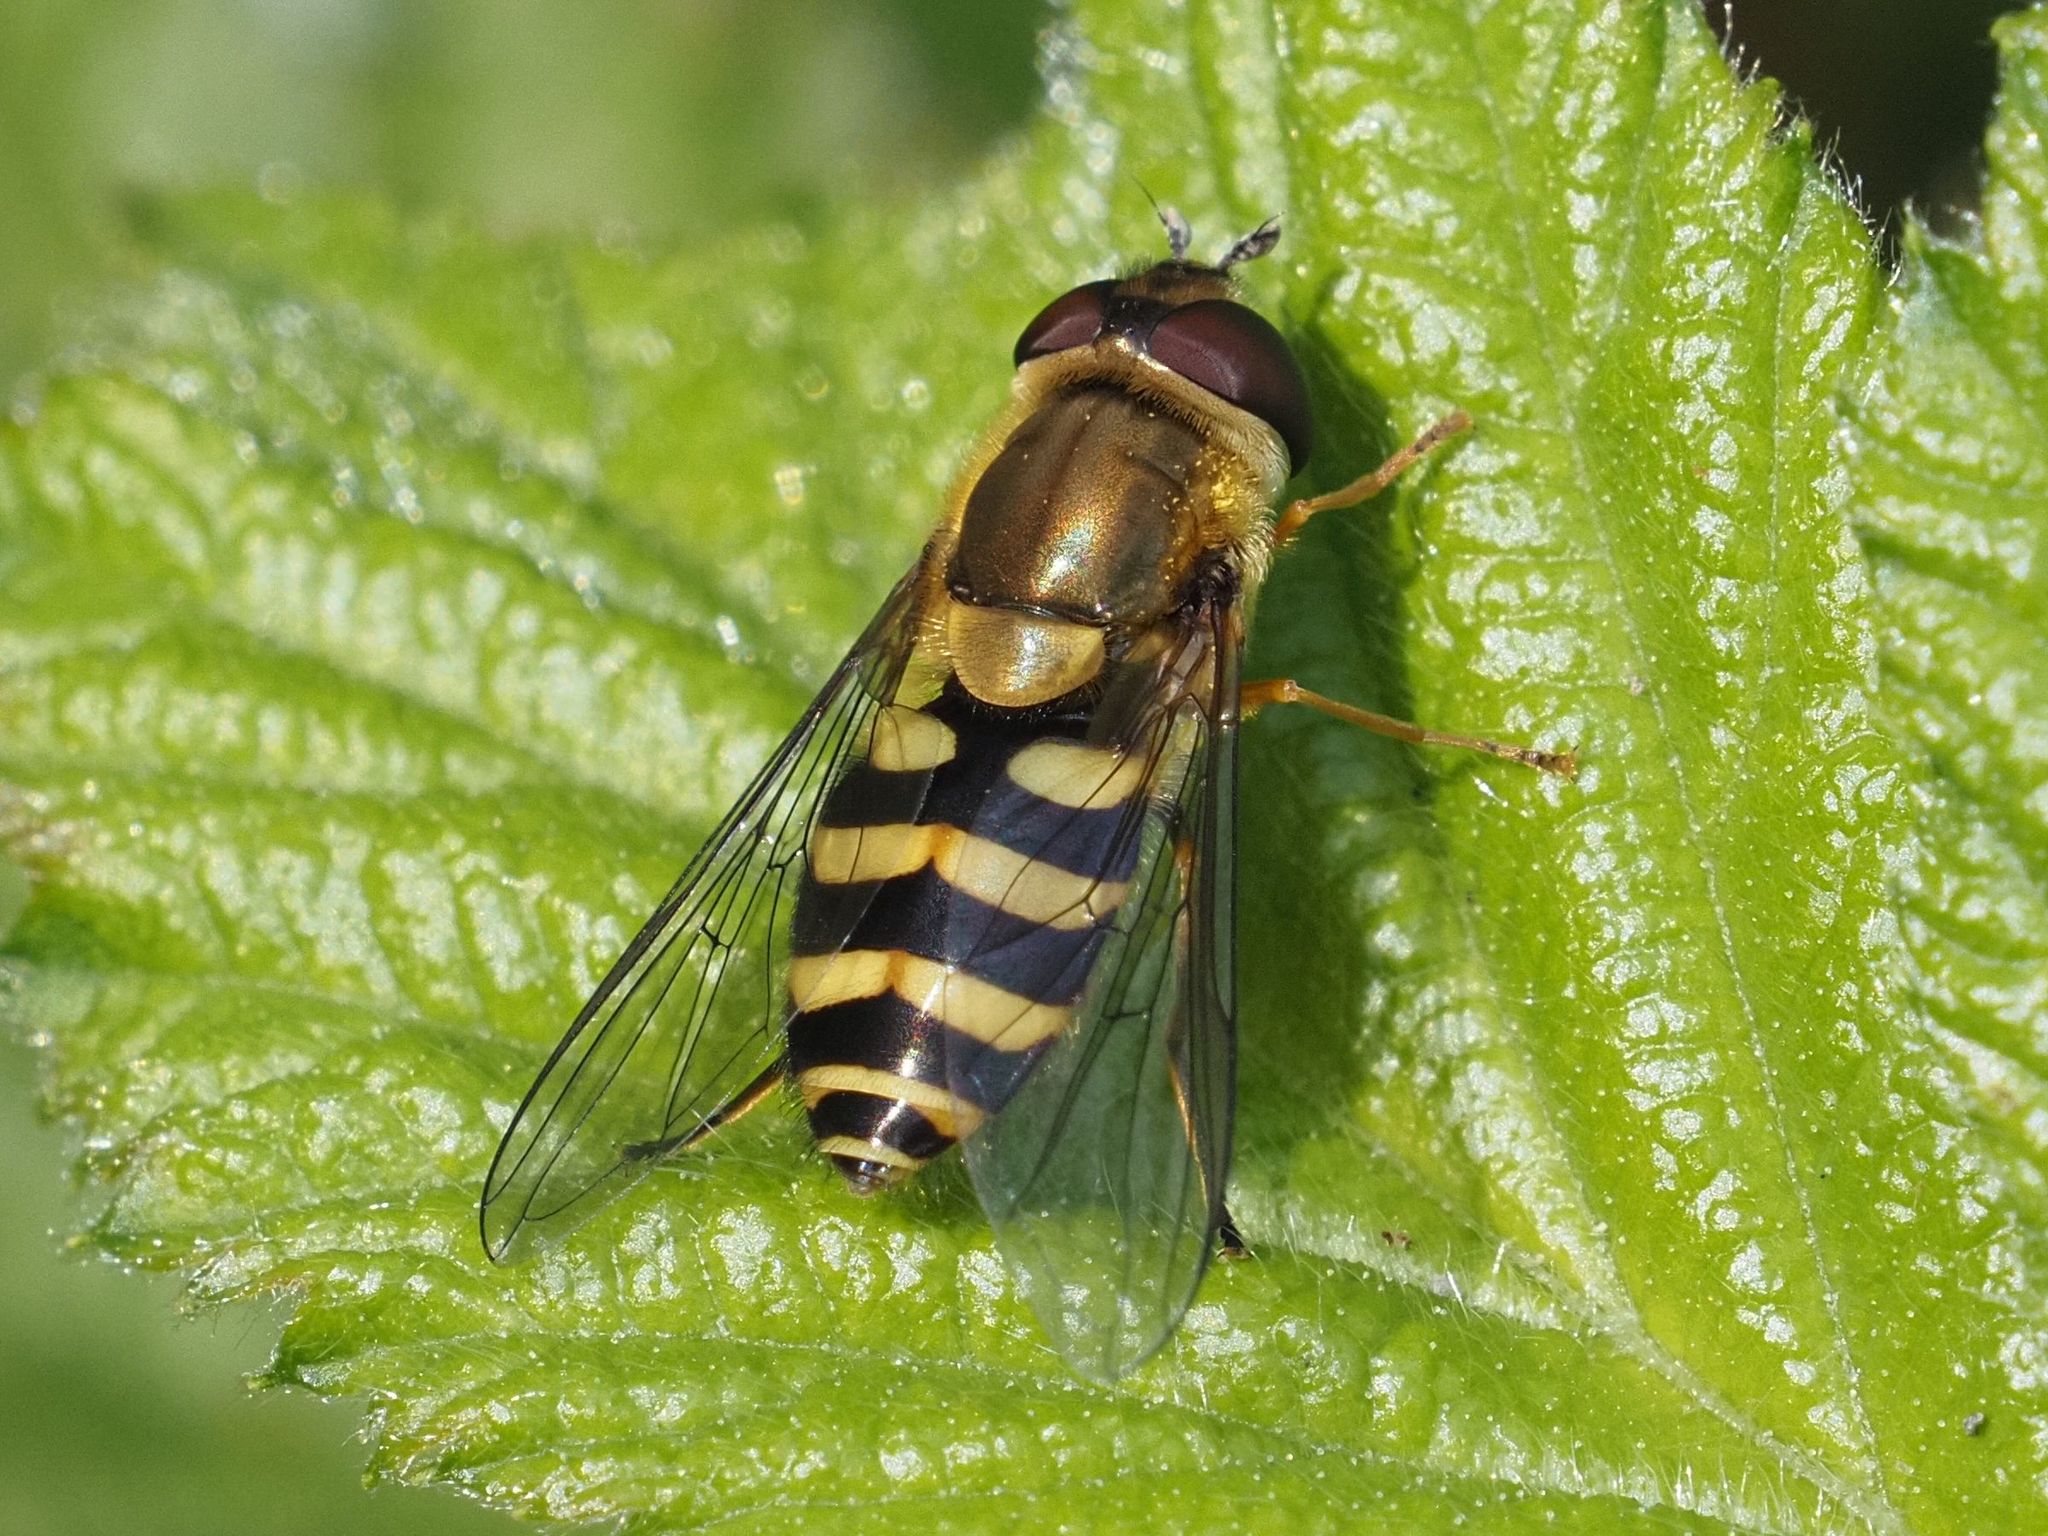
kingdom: Animalia
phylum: Arthropoda
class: Insecta
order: Diptera
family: Syrphidae
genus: Syrphus
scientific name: Syrphus
